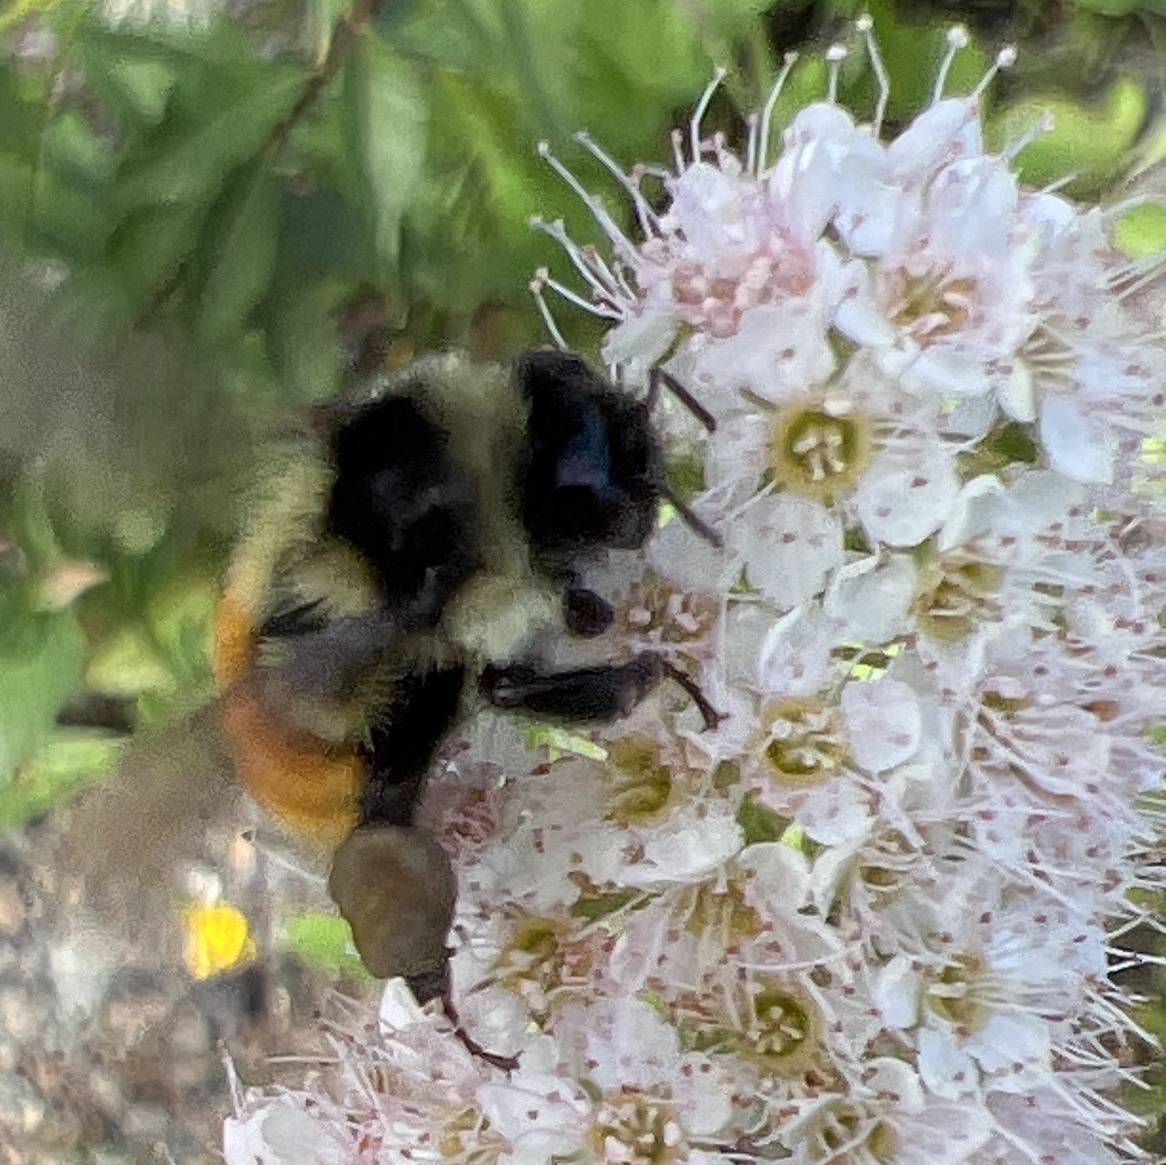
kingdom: Animalia
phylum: Arthropoda
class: Insecta
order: Hymenoptera
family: Apidae
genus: Bombus
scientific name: Bombus ternarius
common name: Tri-colored bumble bee
